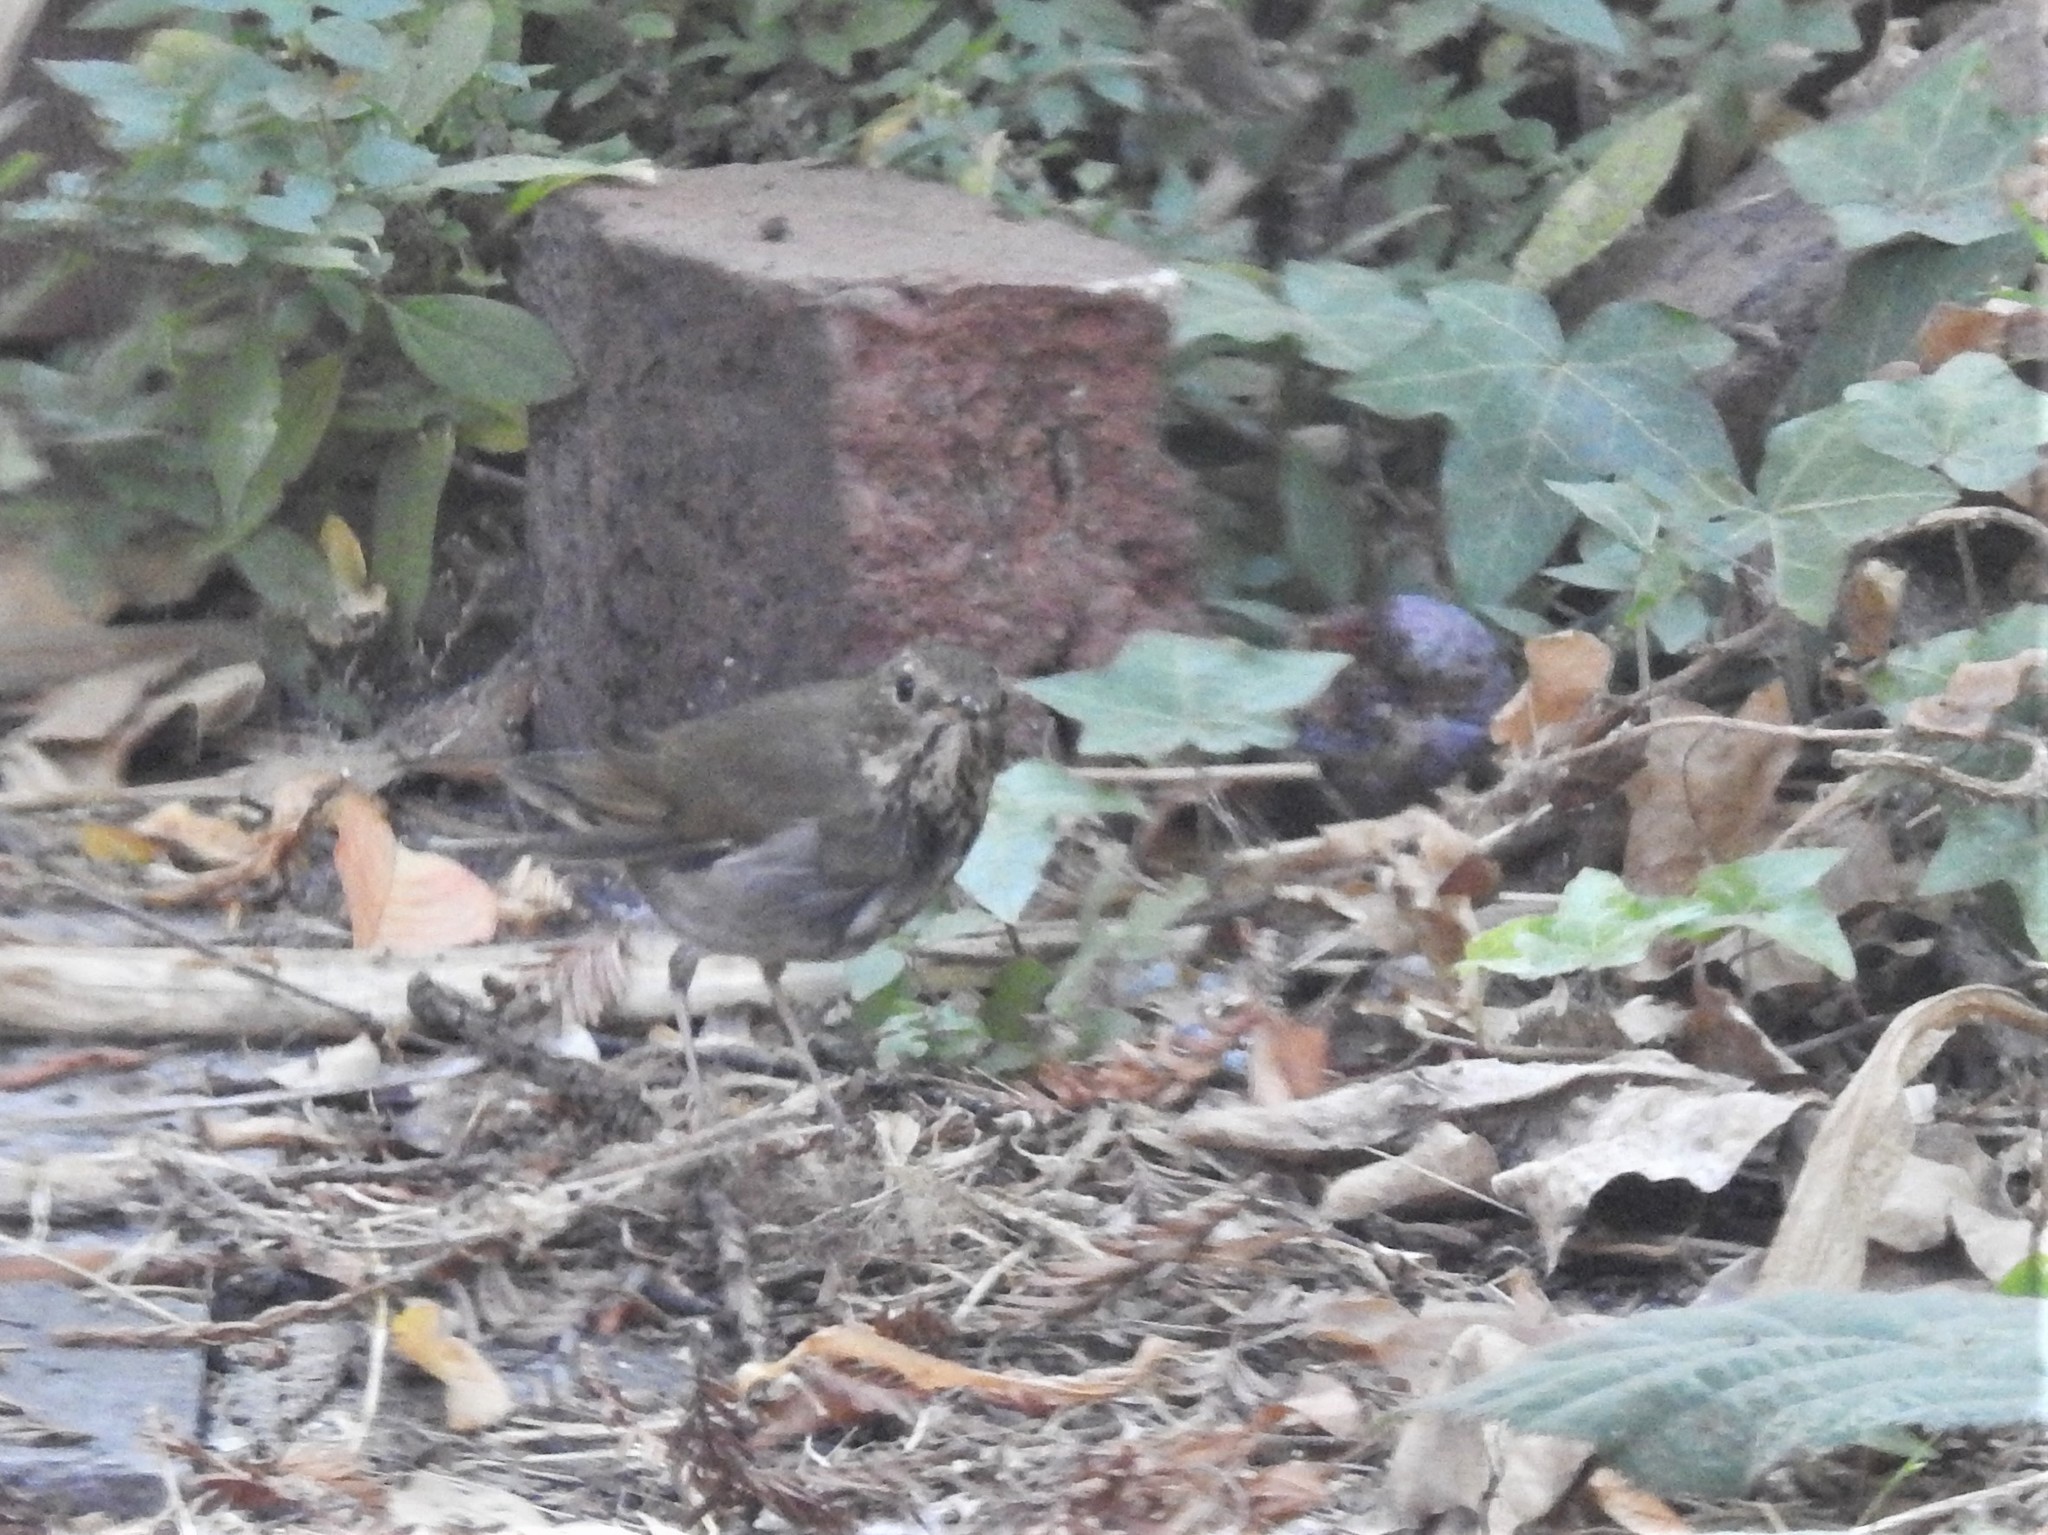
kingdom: Animalia
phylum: Chordata
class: Aves
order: Passeriformes
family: Turdidae
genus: Catharus
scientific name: Catharus guttatus
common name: Hermit thrush
